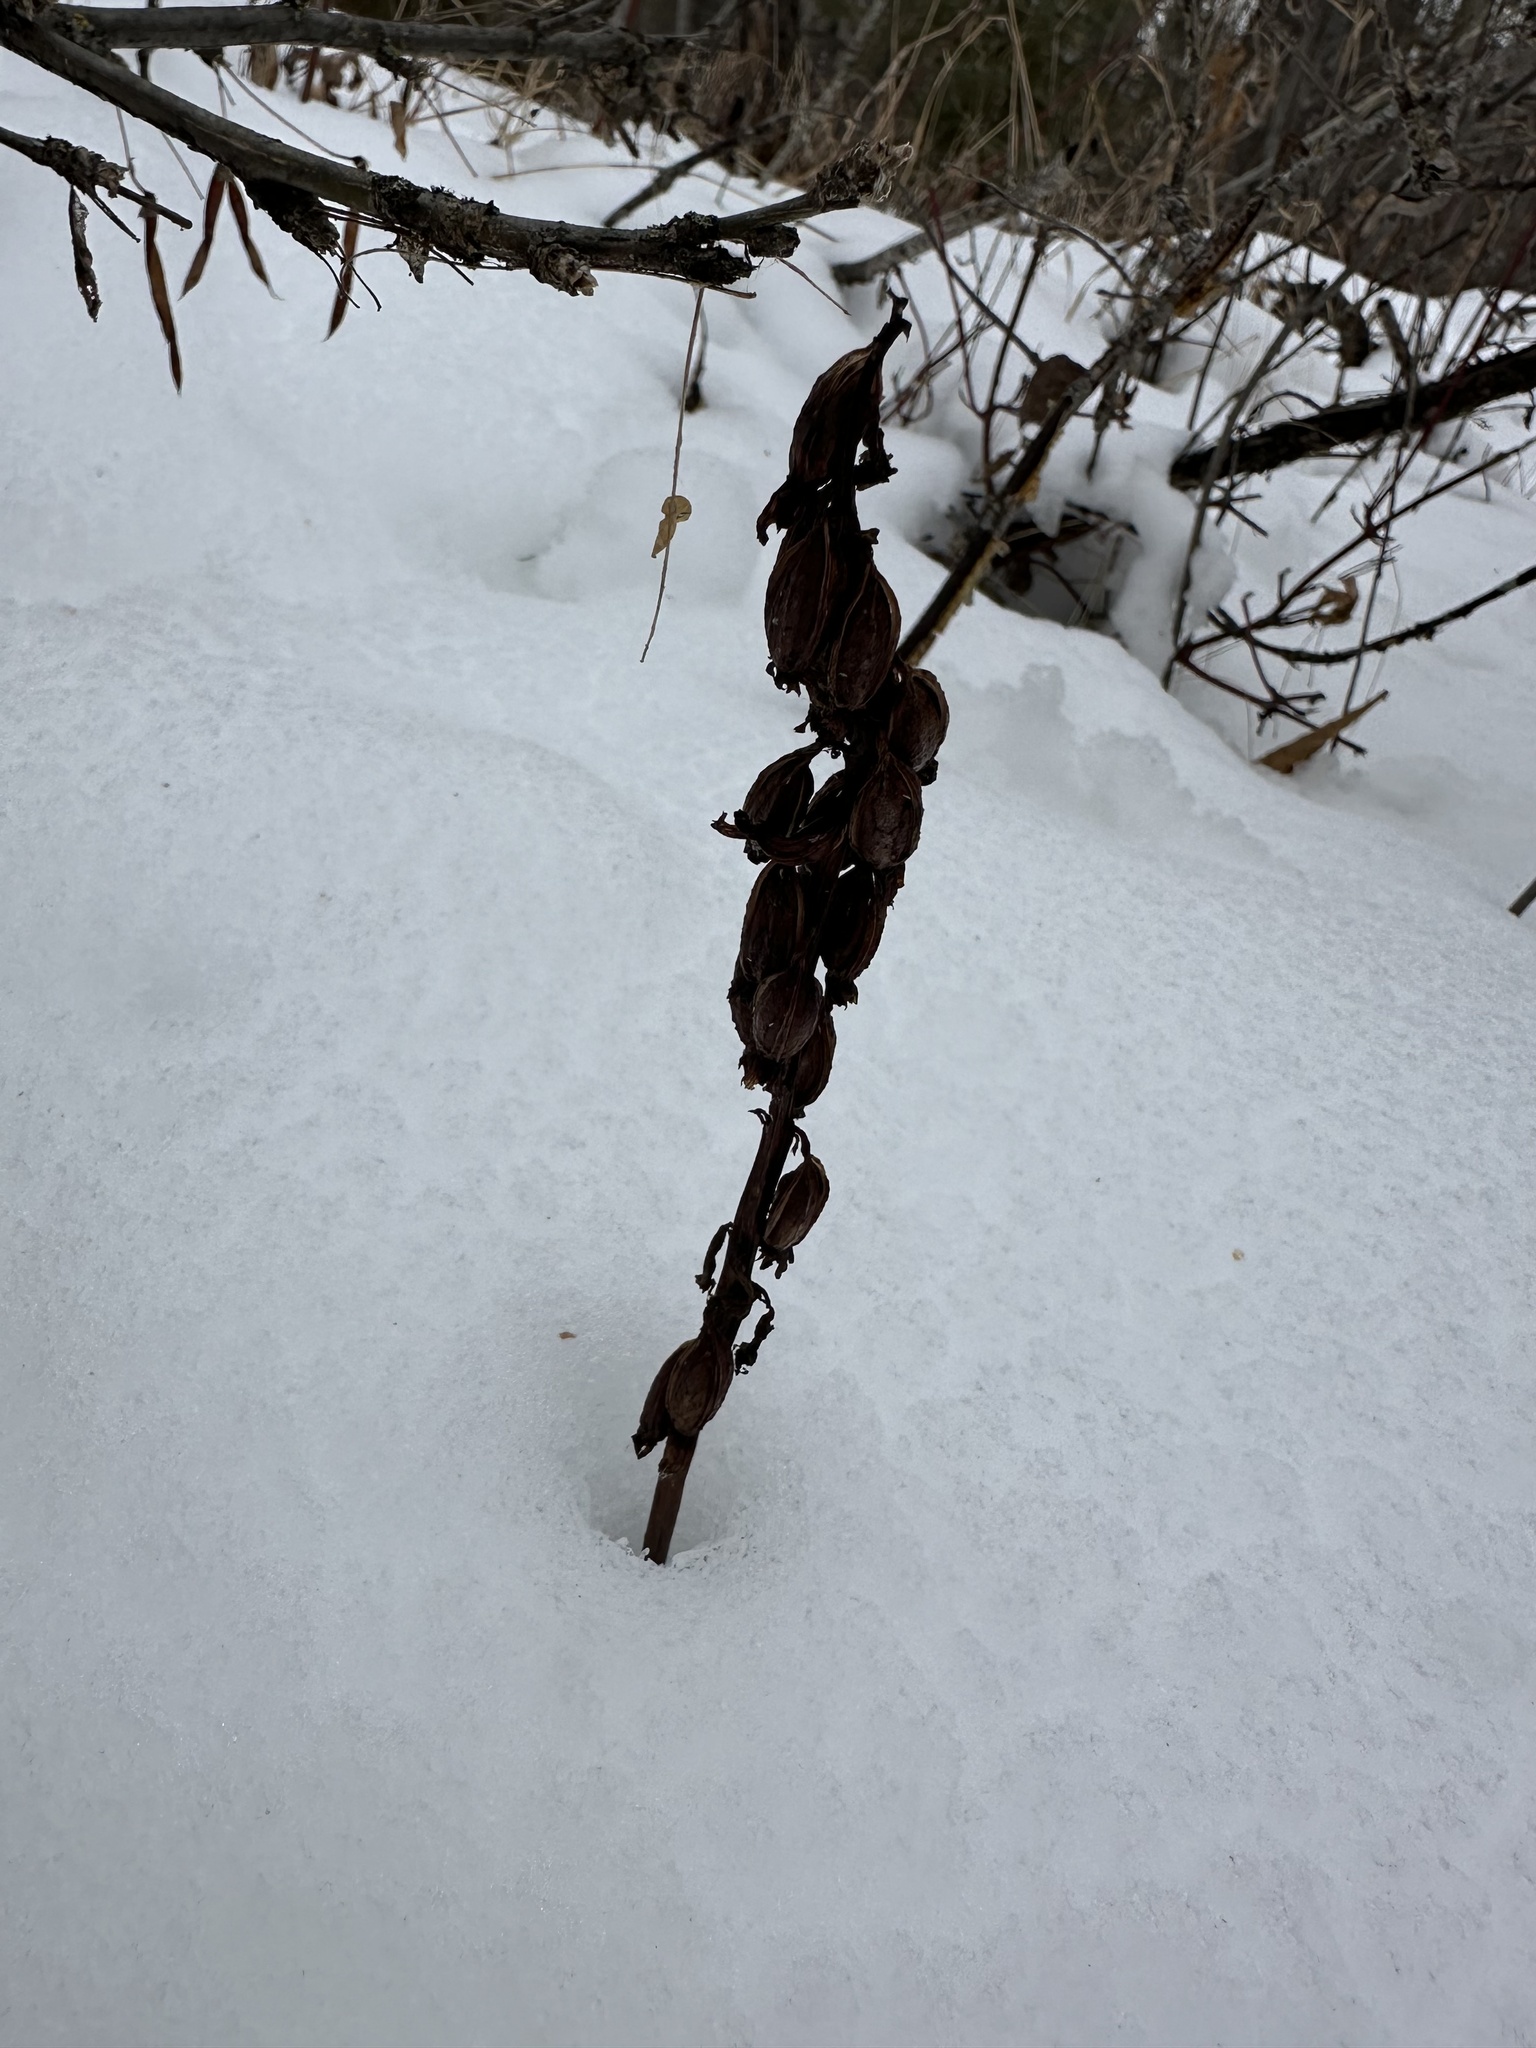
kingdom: Plantae
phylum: Tracheophyta
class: Liliopsida
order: Asparagales
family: Orchidaceae
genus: Corallorhiza
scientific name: Corallorhiza maculata
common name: Spotted coralroot
